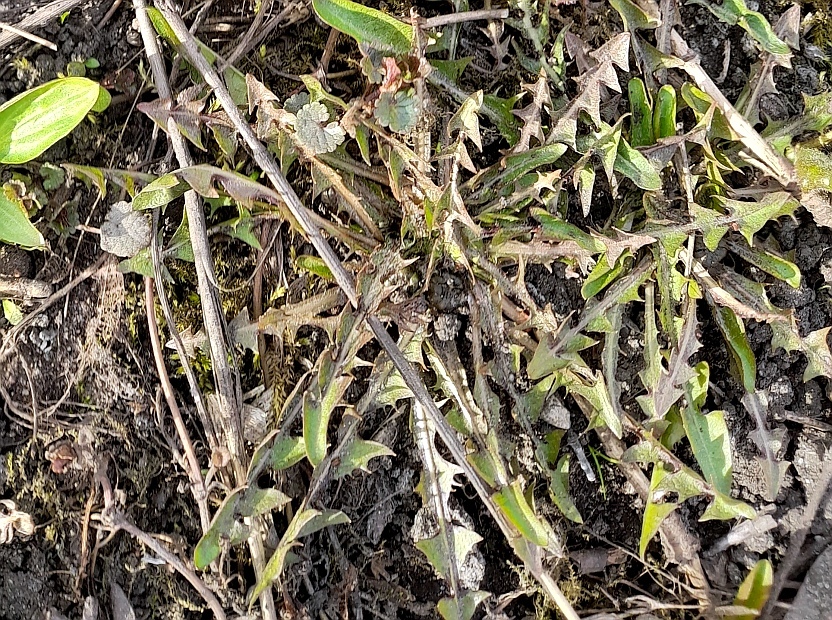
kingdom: Plantae
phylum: Tracheophyta
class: Magnoliopsida
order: Asterales
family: Asteraceae
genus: Taraxacum
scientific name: Taraxacum officinale
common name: Common dandelion
